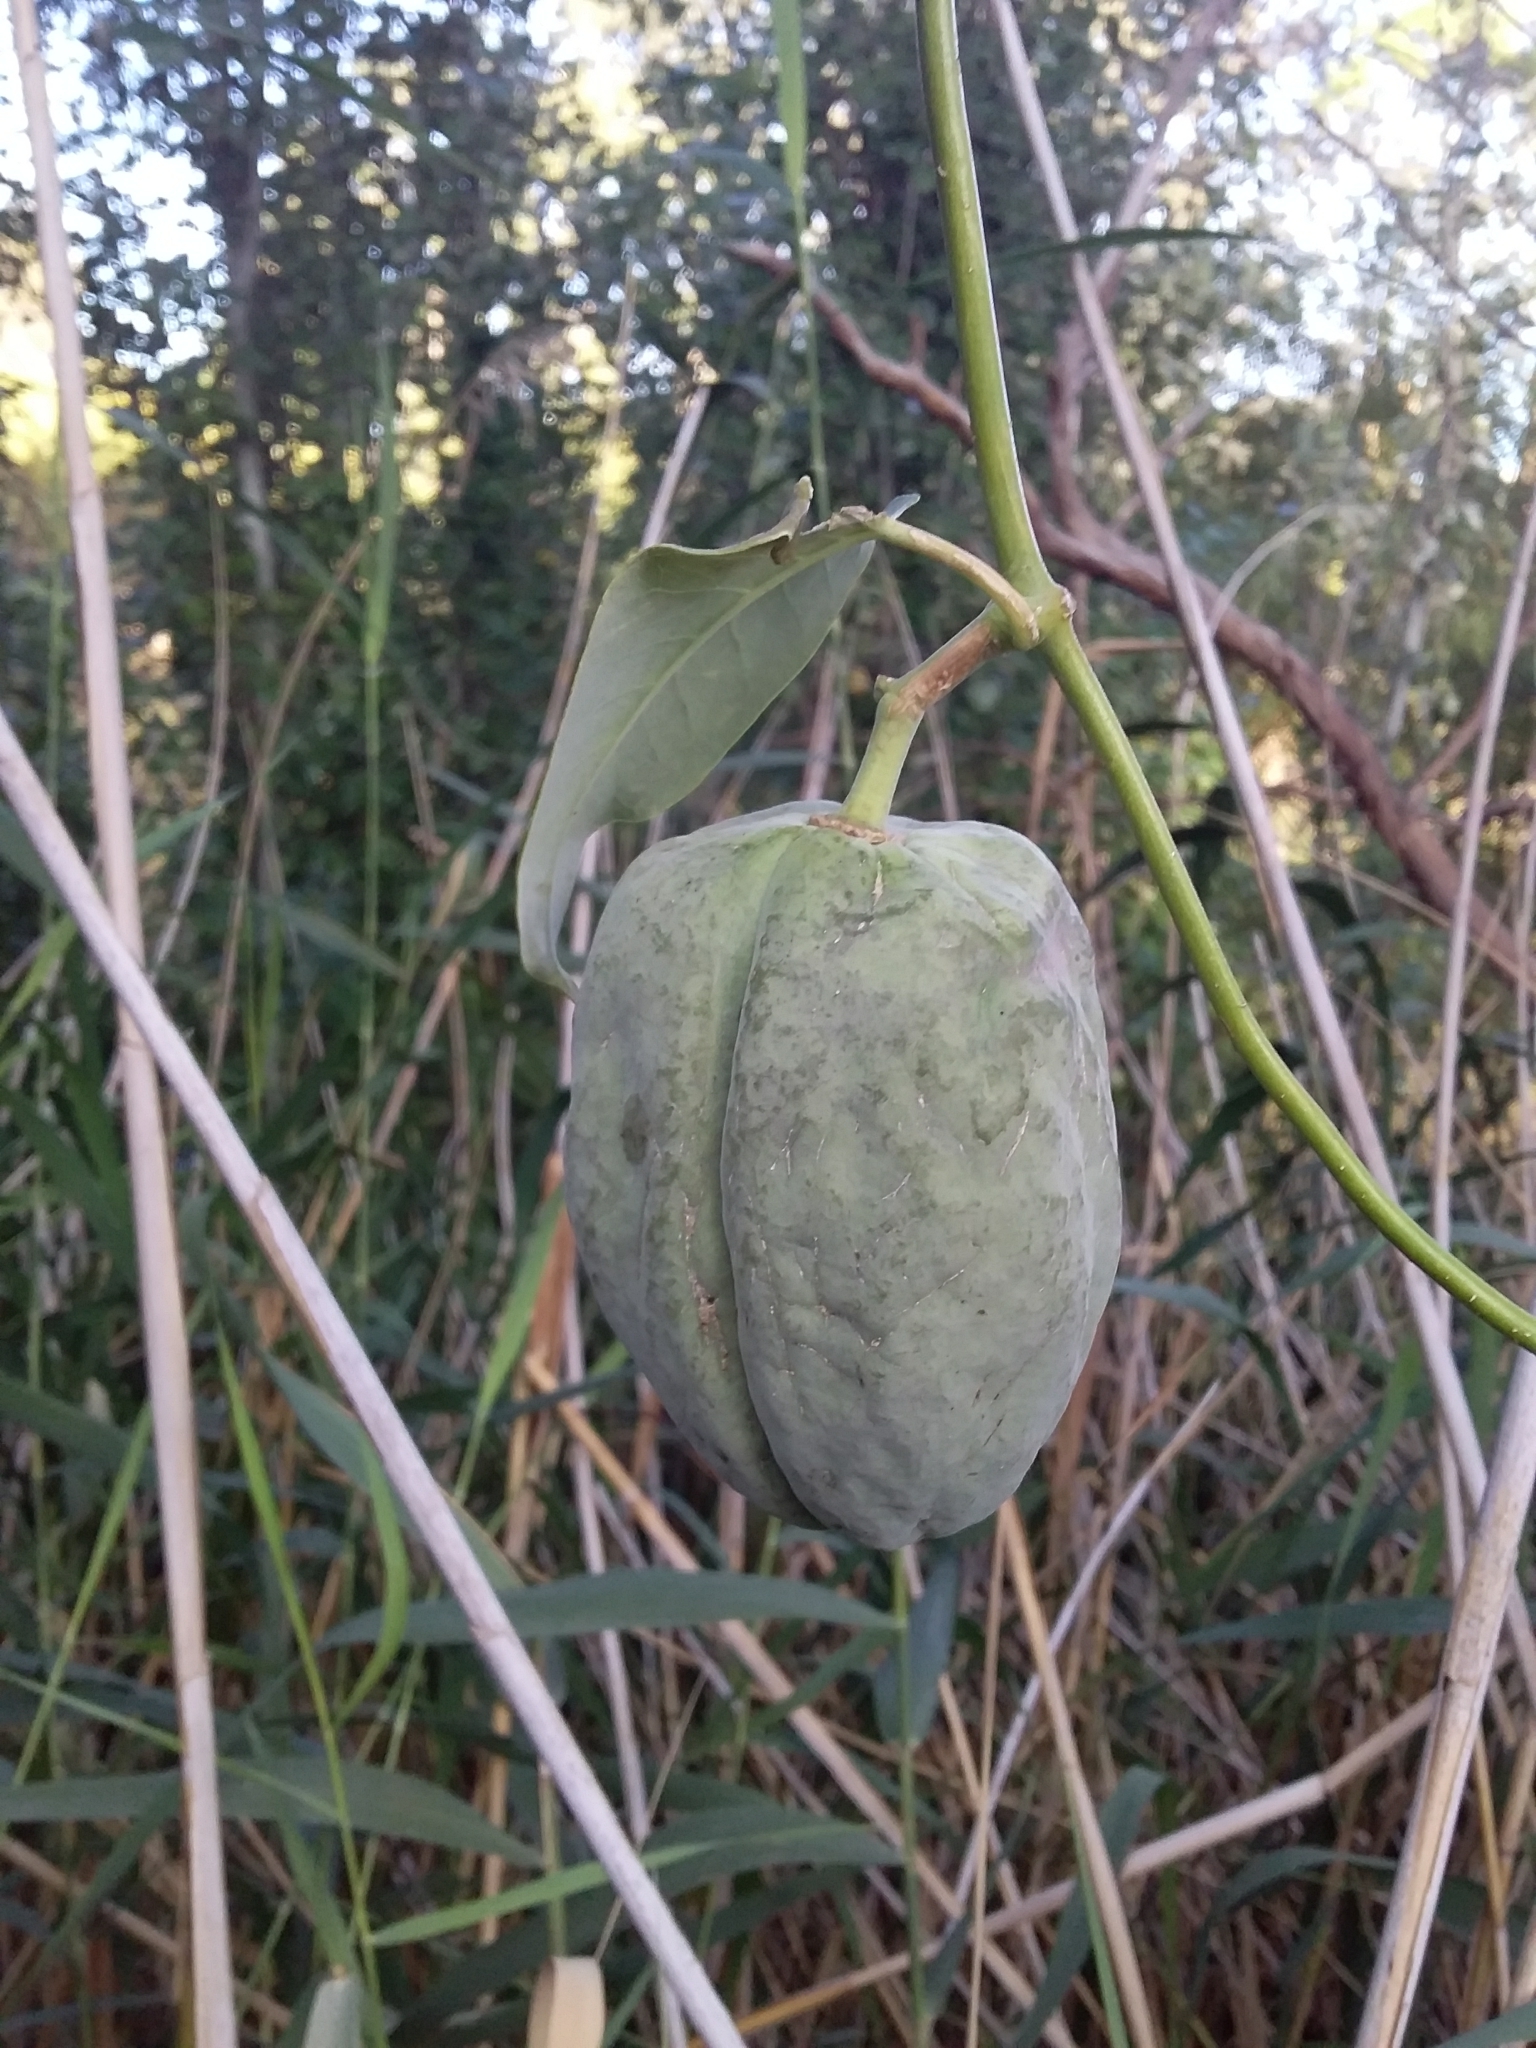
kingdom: Plantae
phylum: Tracheophyta
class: Magnoliopsida
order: Gentianales
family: Apocynaceae
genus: Araujia
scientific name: Araujia sericifera
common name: White bladderflower
